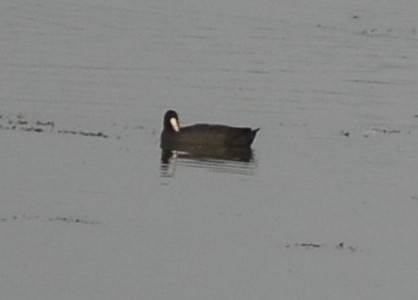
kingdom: Animalia
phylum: Chordata
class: Aves
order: Gruiformes
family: Rallidae
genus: Fulica
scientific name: Fulica atra
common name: Eurasian coot
